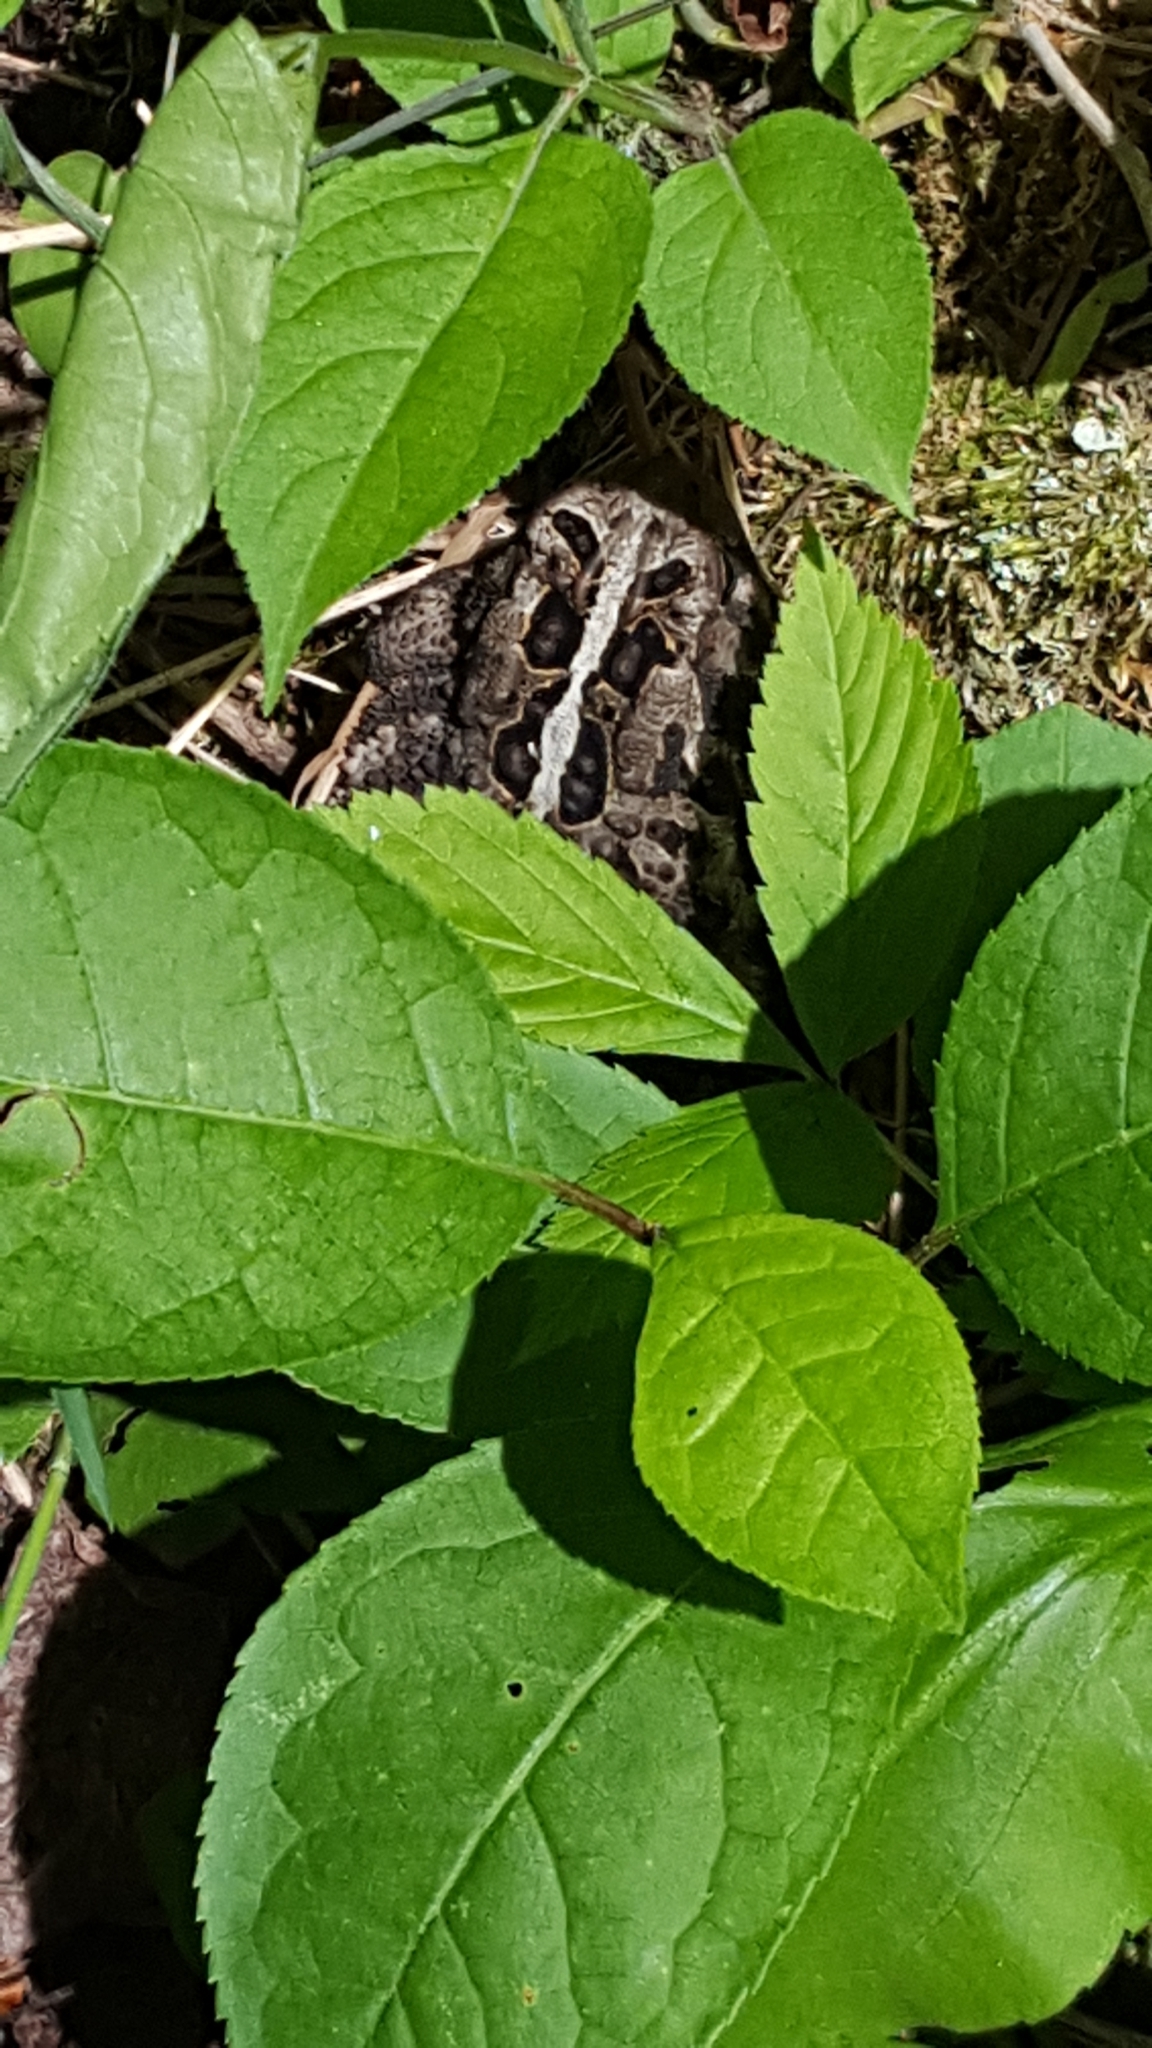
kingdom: Animalia
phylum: Chordata
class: Amphibia
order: Anura
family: Bufonidae
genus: Anaxyrus
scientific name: Anaxyrus americanus
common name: American toad
